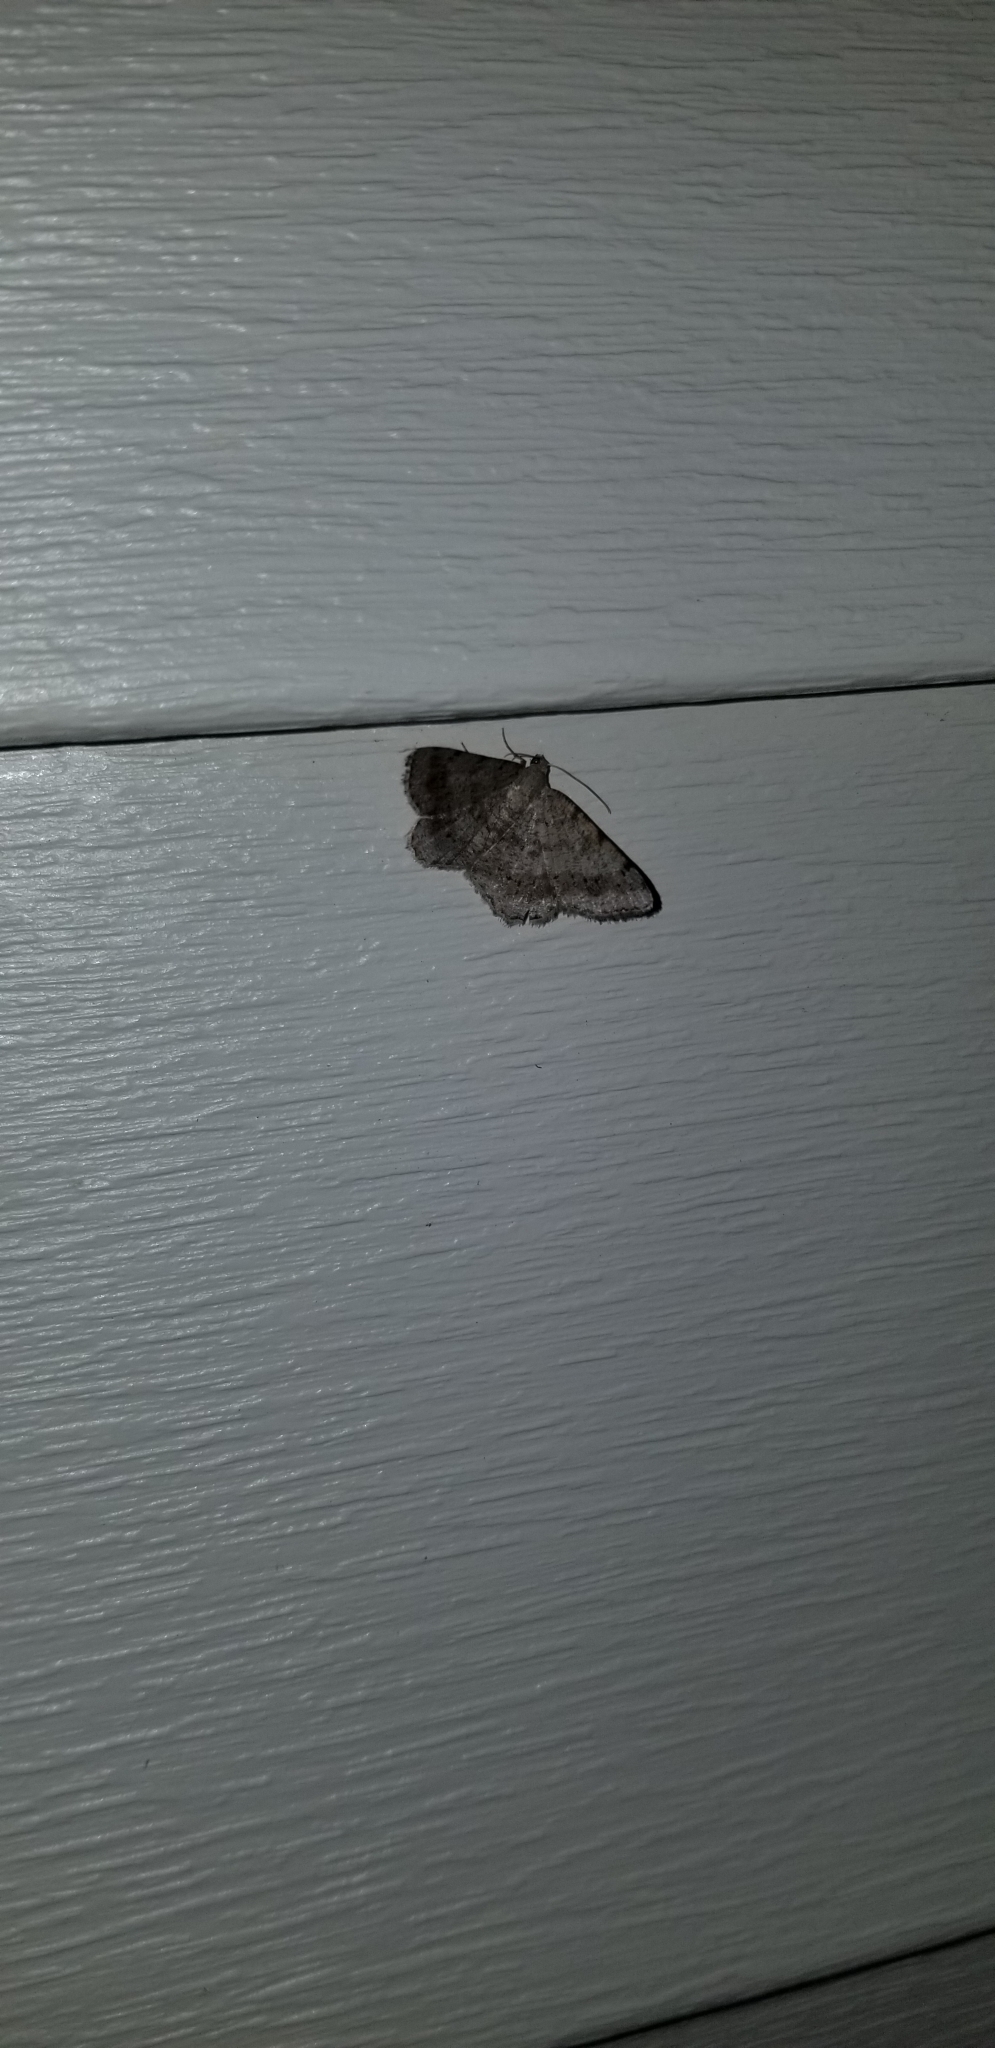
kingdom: Animalia
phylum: Arthropoda
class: Insecta
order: Lepidoptera
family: Geometridae
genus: Digrammia
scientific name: Digrammia ocellinata
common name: Faint-spotted angle
